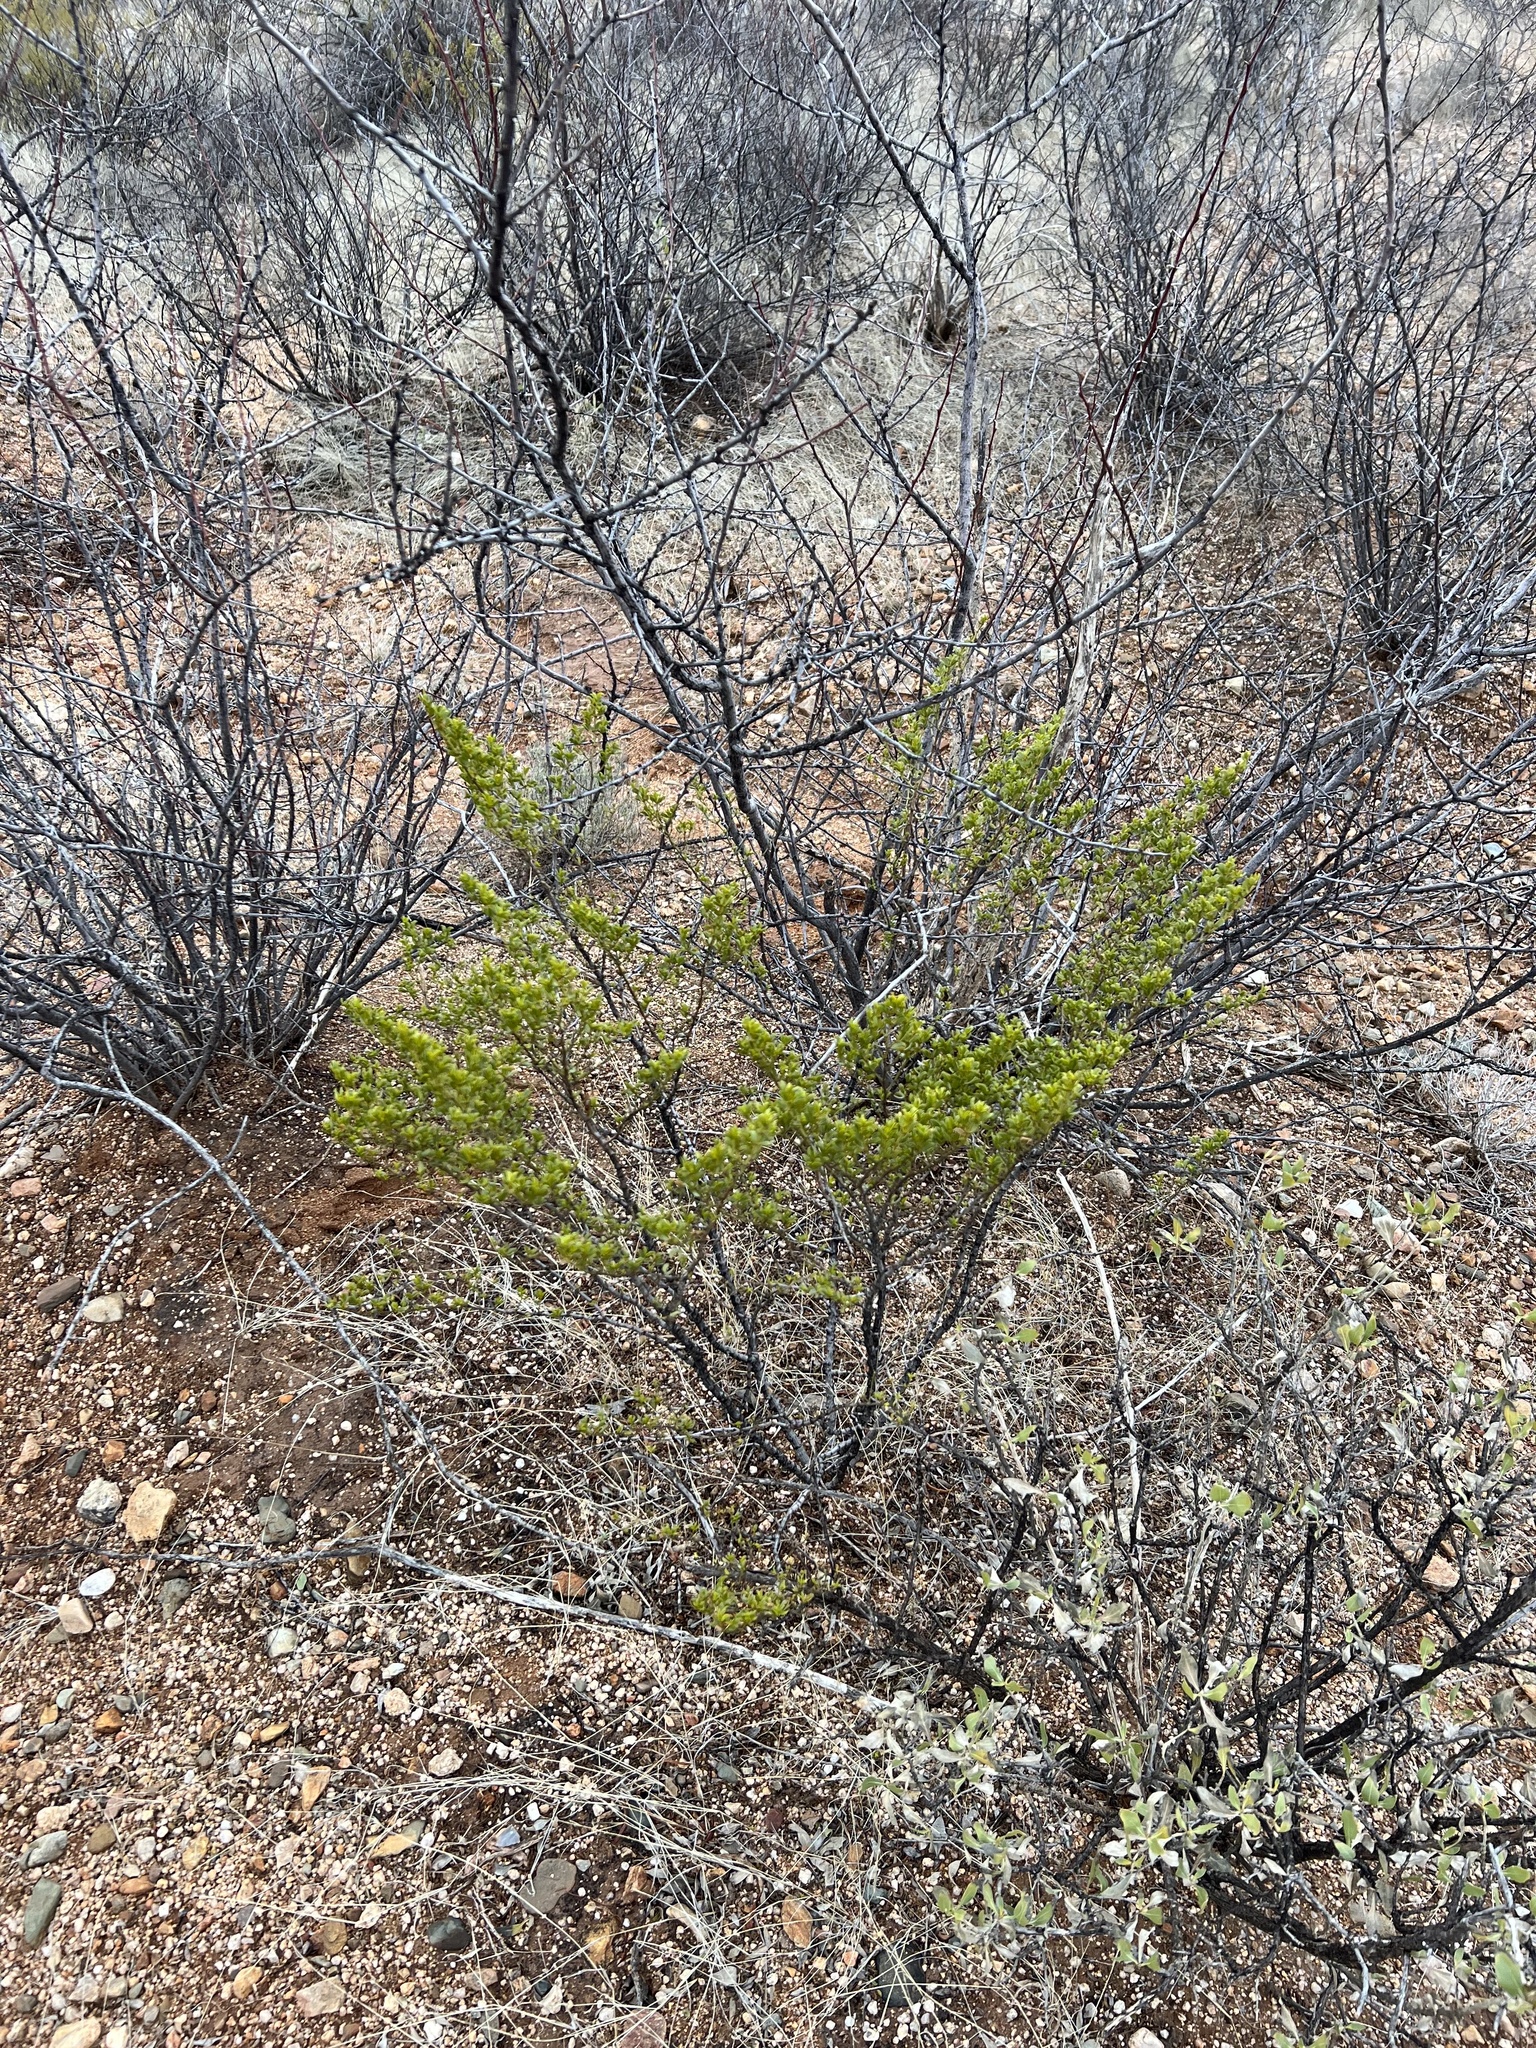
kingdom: Plantae
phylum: Tracheophyta
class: Magnoliopsida
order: Zygophyllales
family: Zygophyllaceae
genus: Larrea
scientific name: Larrea tridentata
